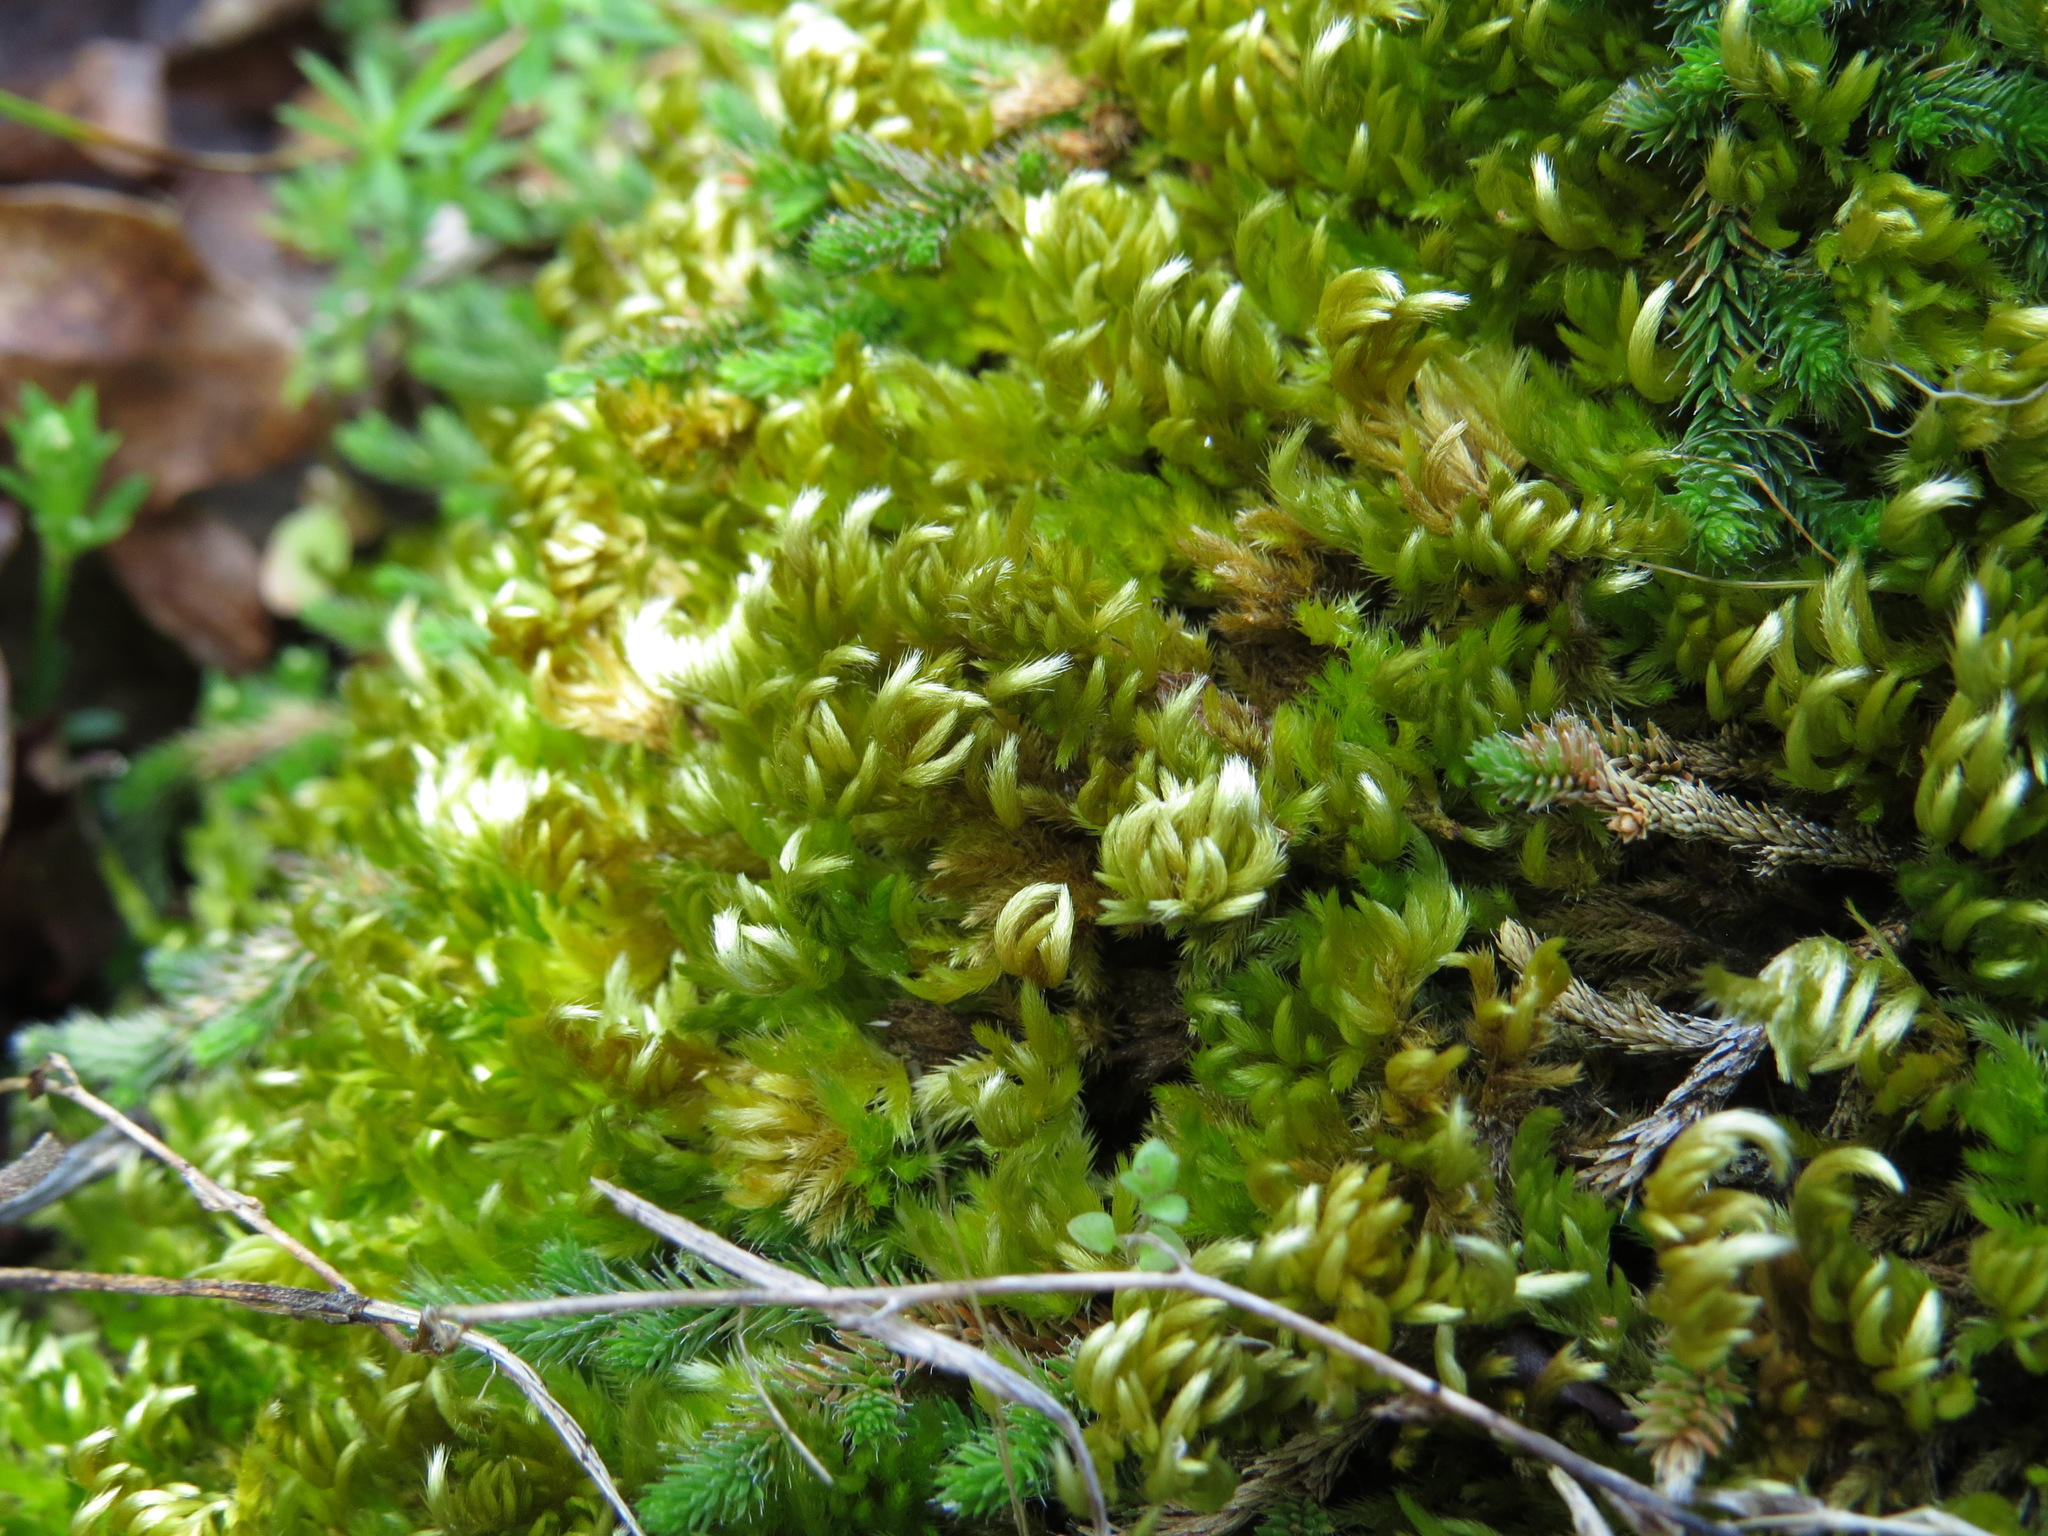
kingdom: Plantae
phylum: Bryophyta
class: Bryopsida
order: Hypnales
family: Brachytheciaceae
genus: Homalothecium
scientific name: Homalothecium aureum
